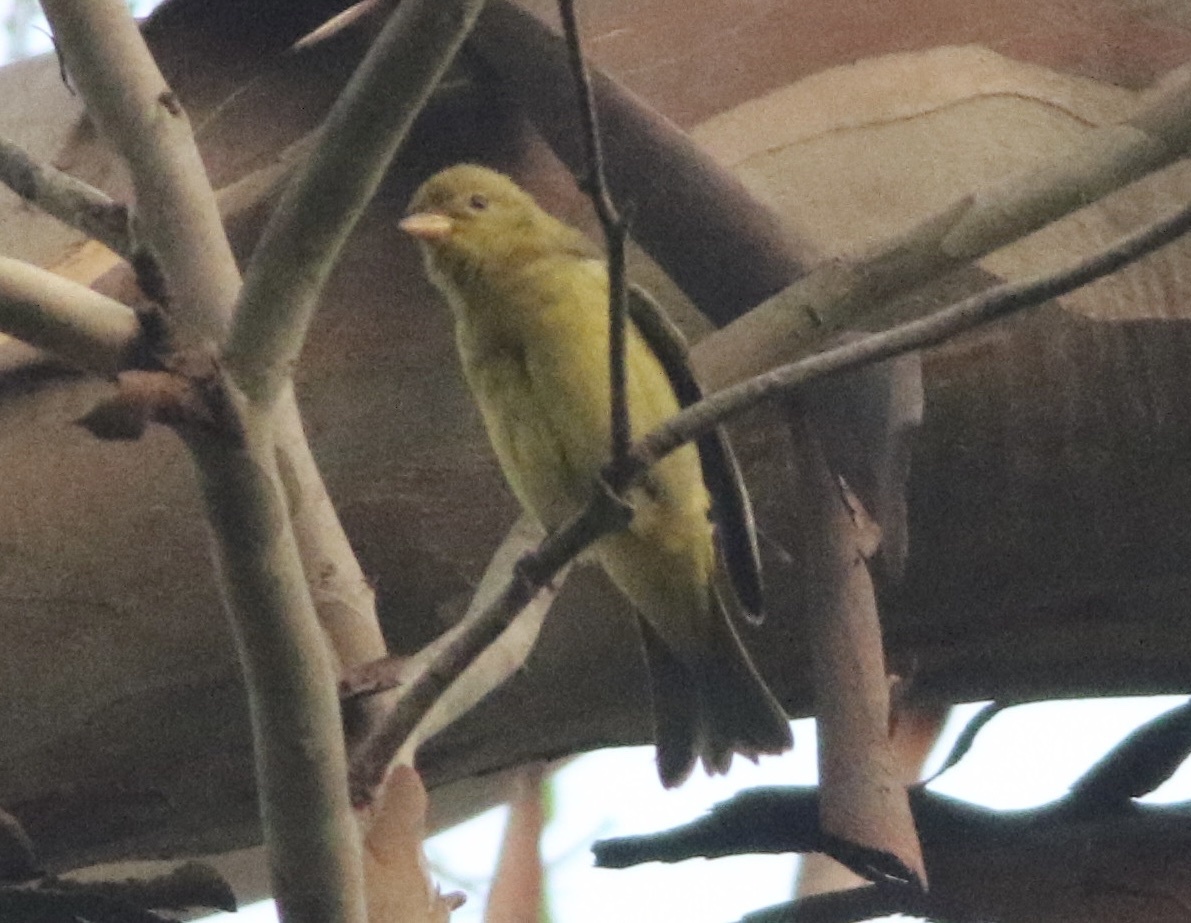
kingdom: Animalia
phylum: Chordata
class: Aves
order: Passeriformes
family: Cardinalidae
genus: Piranga
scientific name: Piranga ludoviciana
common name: Western tanager
